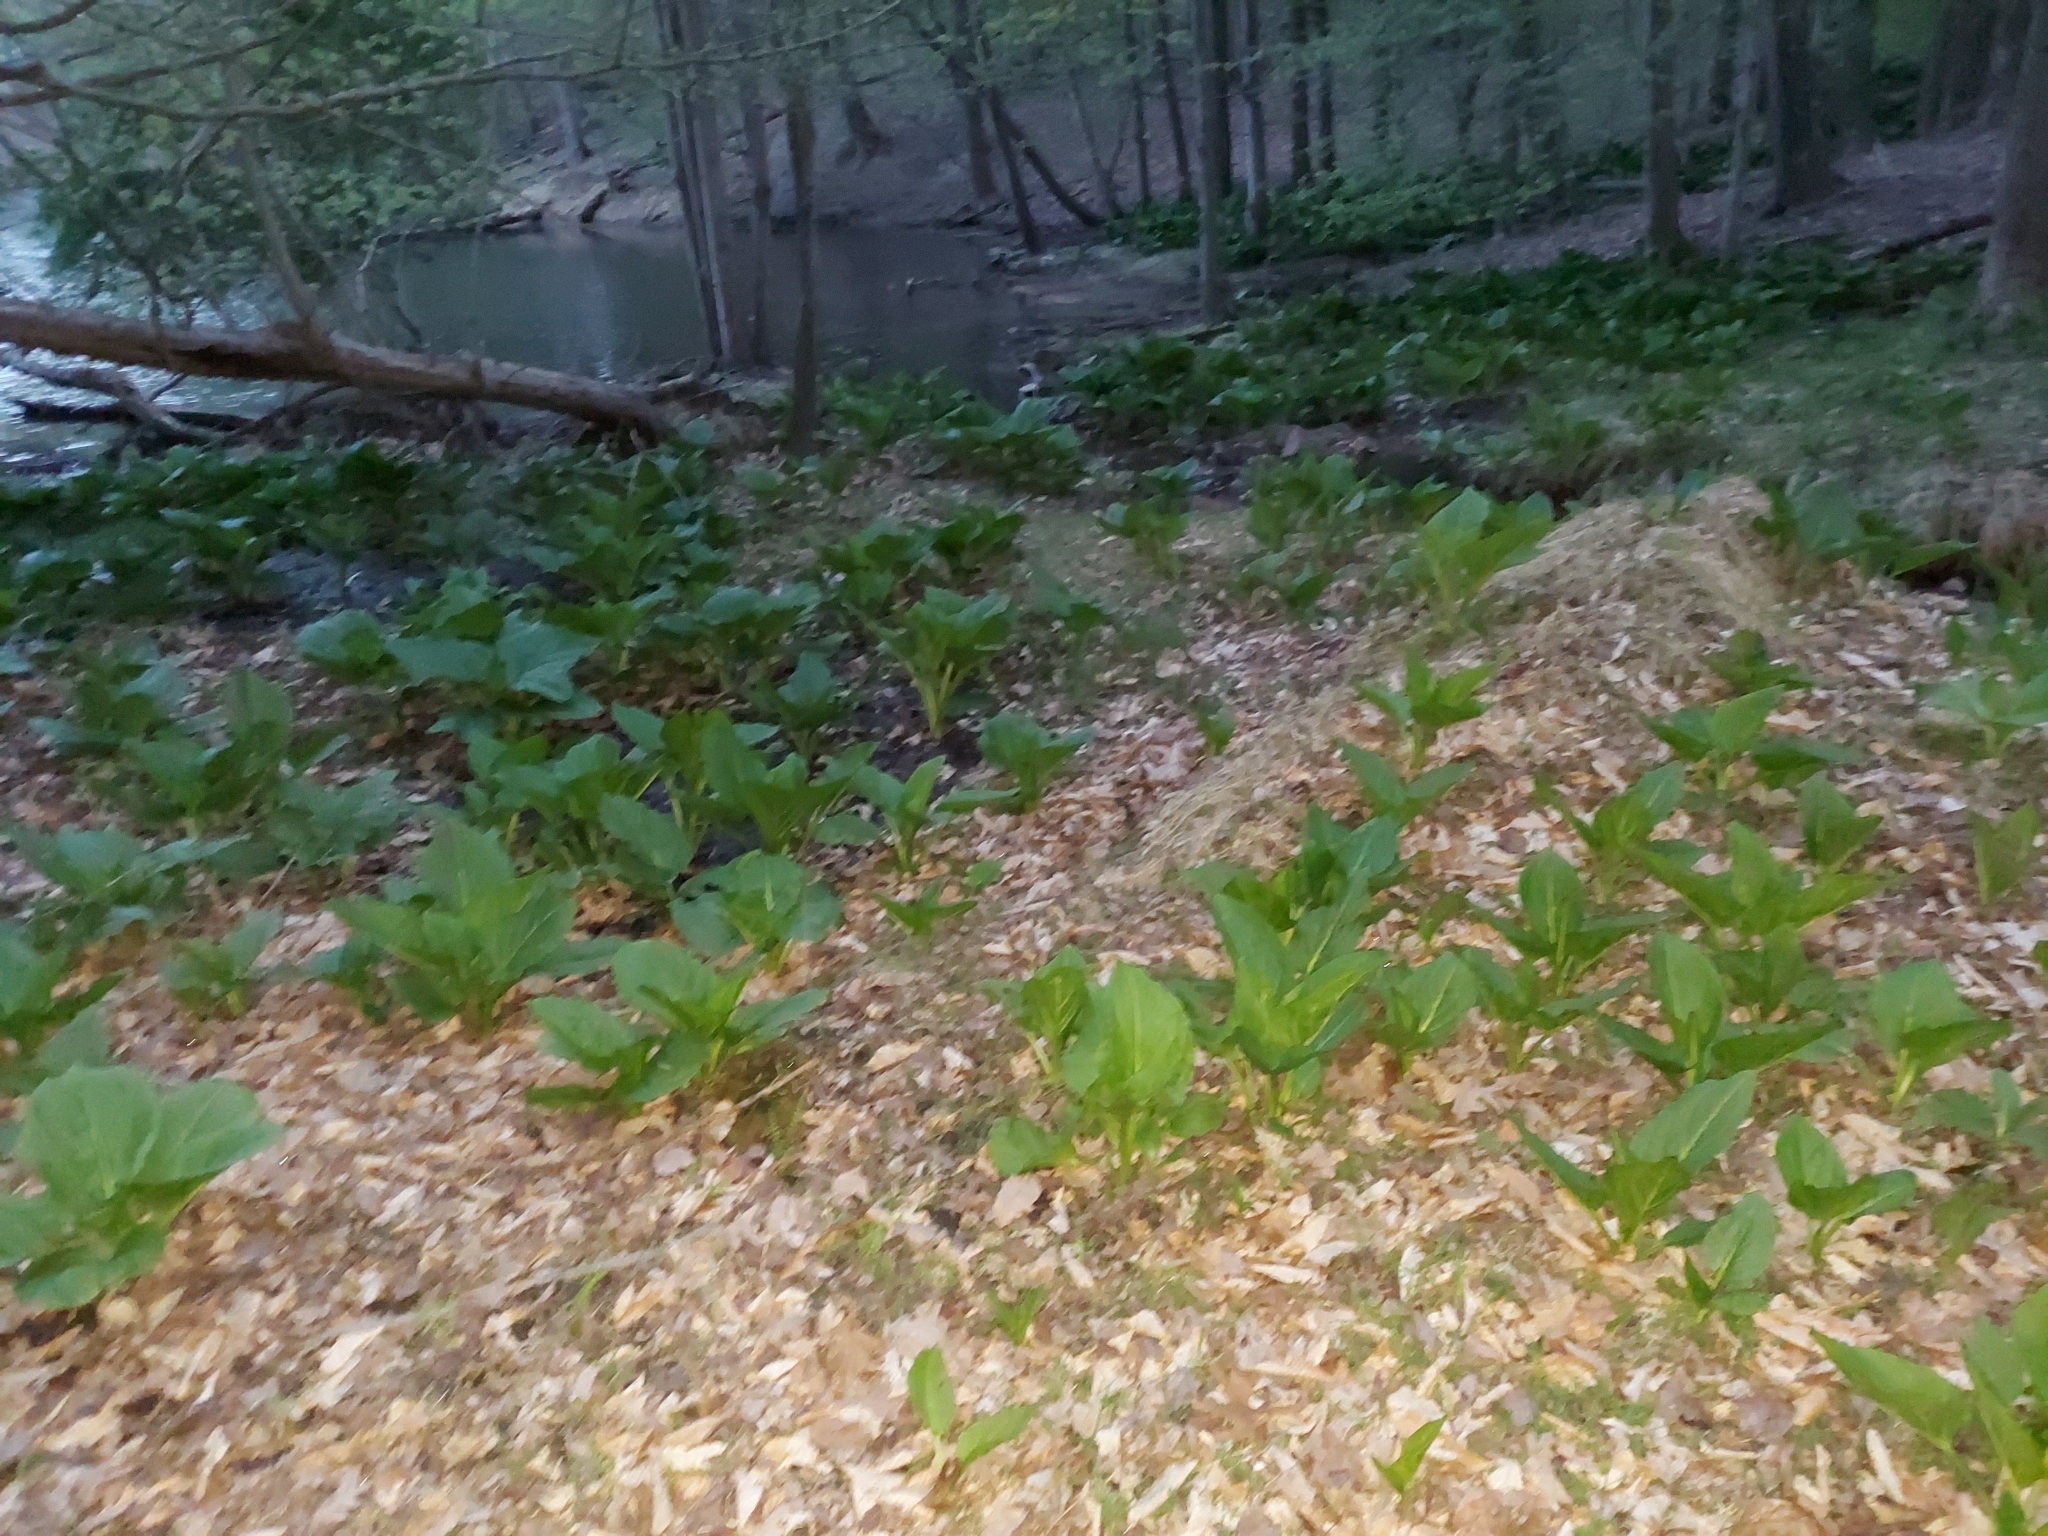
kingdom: Plantae
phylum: Tracheophyta
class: Liliopsida
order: Alismatales
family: Araceae
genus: Symplocarpus
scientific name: Symplocarpus foetidus
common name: Eastern skunk cabbage
